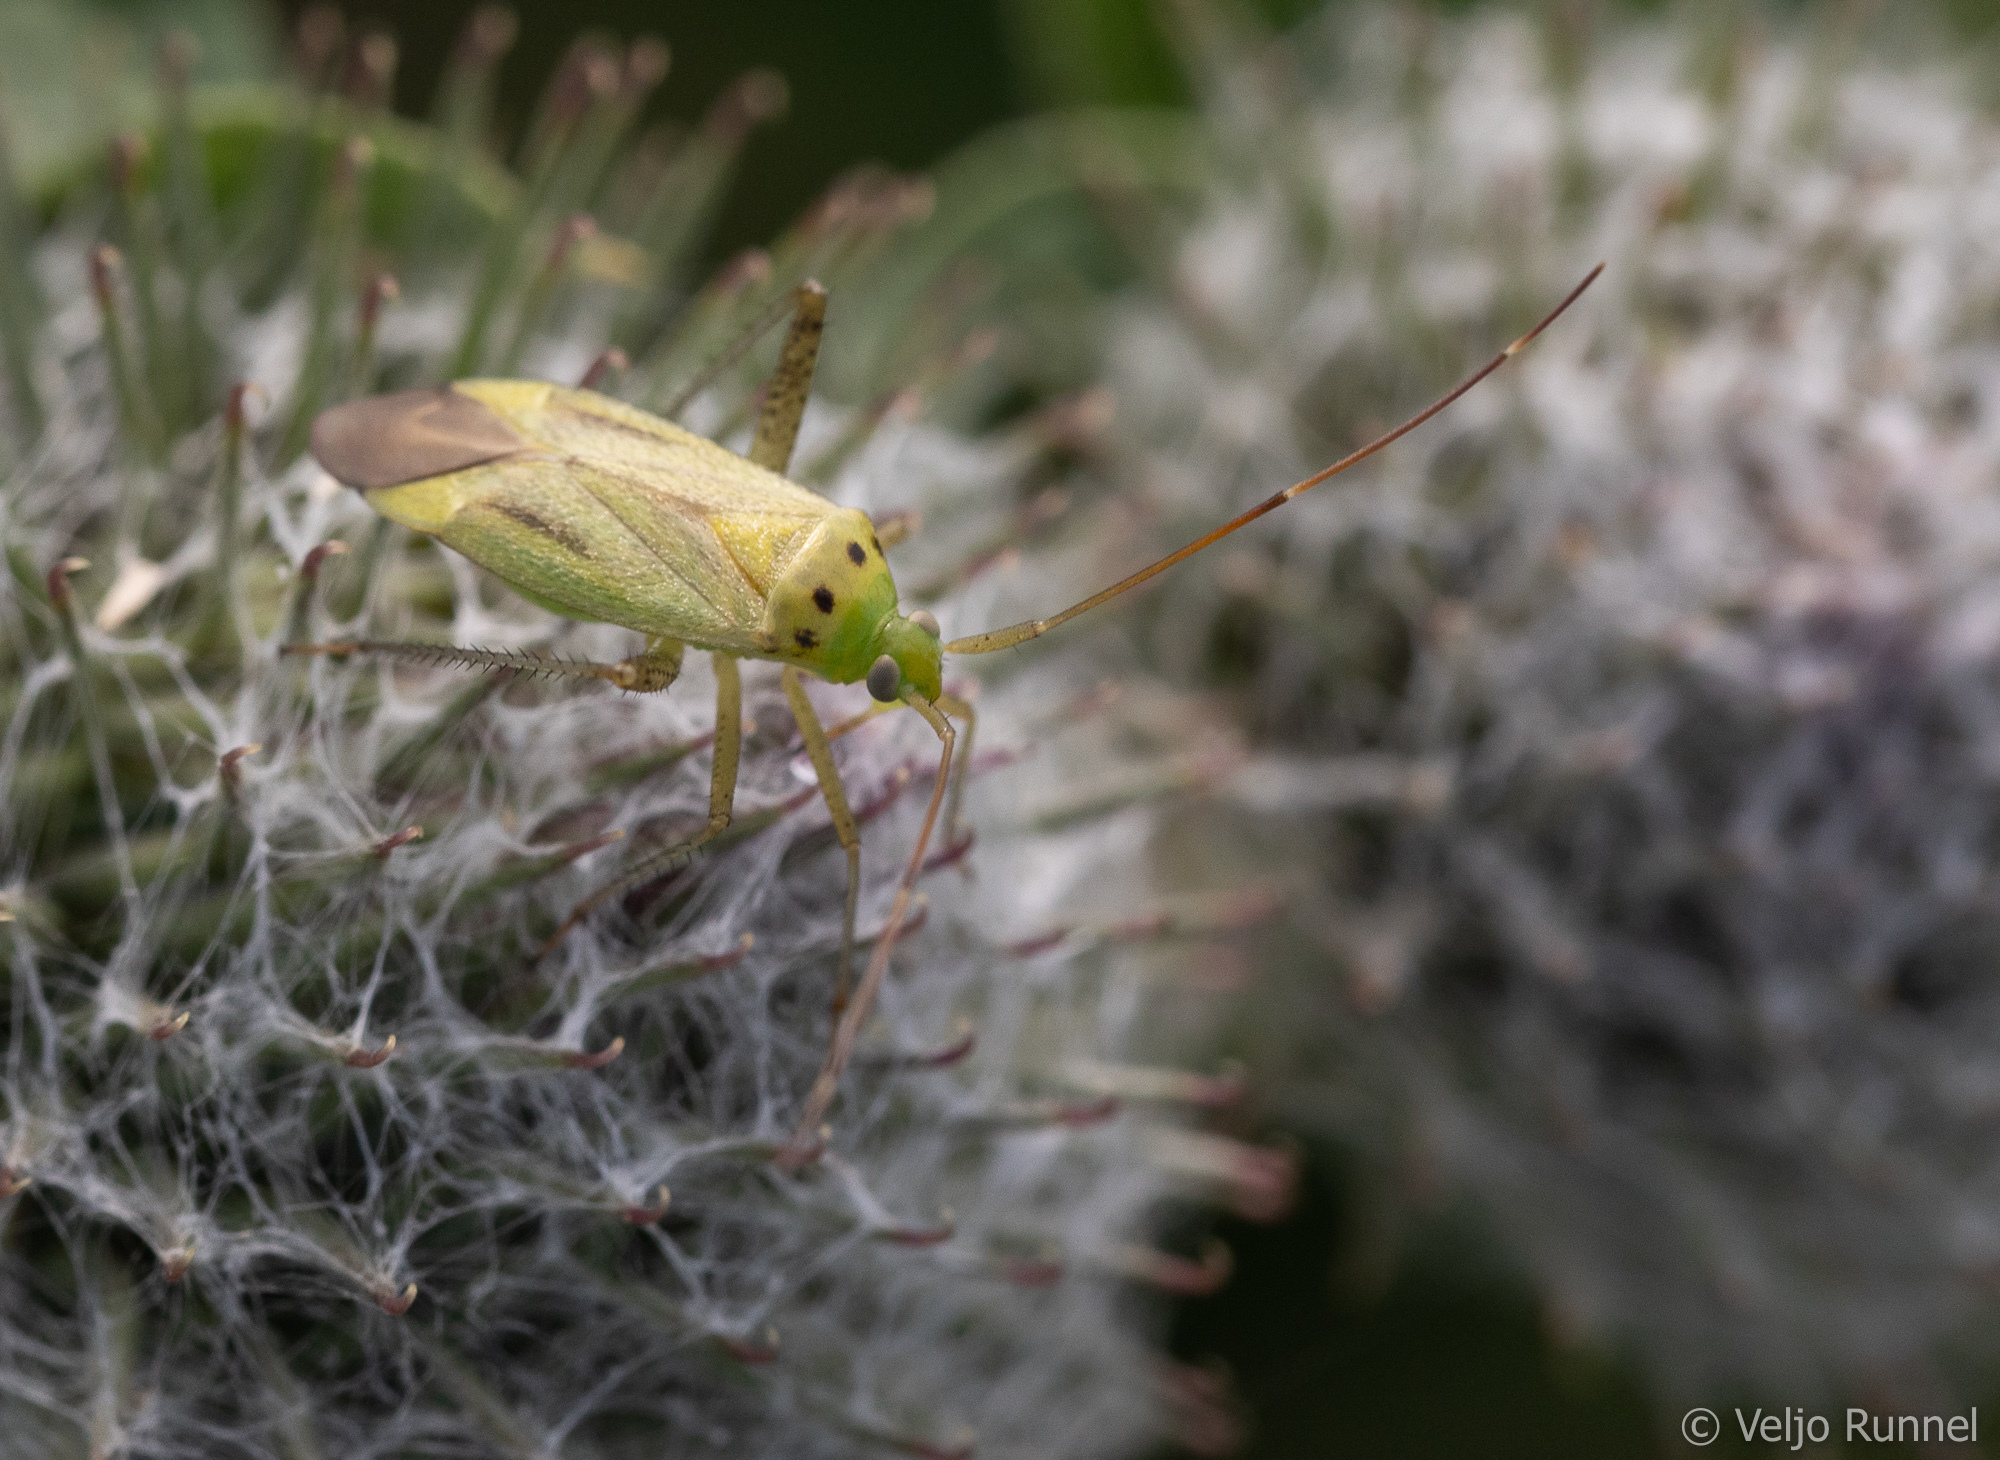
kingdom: Animalia
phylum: Arthropoda
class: Insecta
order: Hemiptera
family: Miridae
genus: Adelphocoris
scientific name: Adelphocoris quadripunctatus
